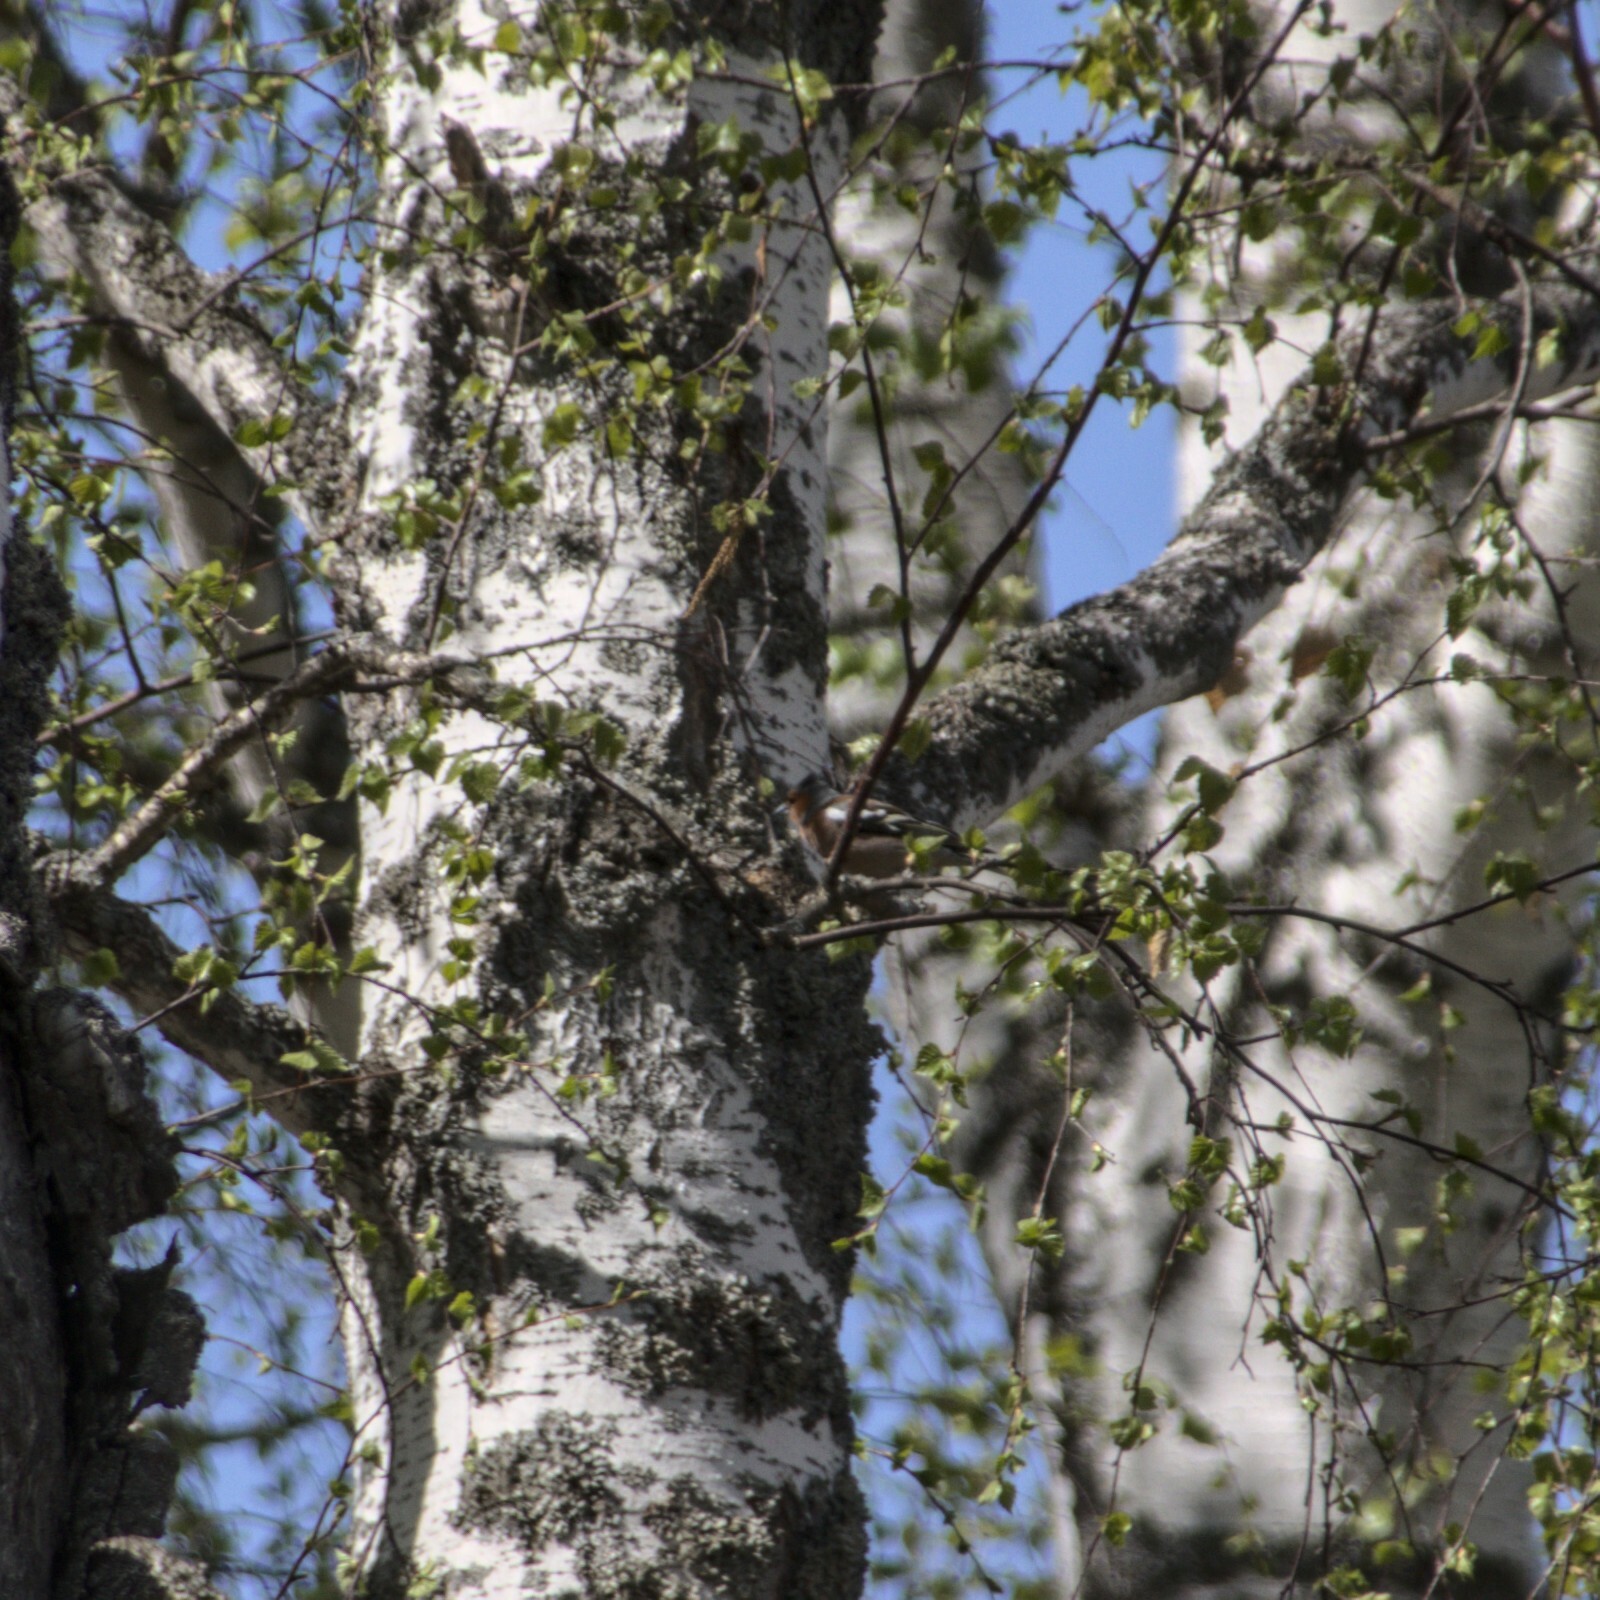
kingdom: Animalia
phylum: Chordata
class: Aves
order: Passeriformes
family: Fringillidae
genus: Fringilla
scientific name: Fringilla coelebs
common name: Common chaffinch
